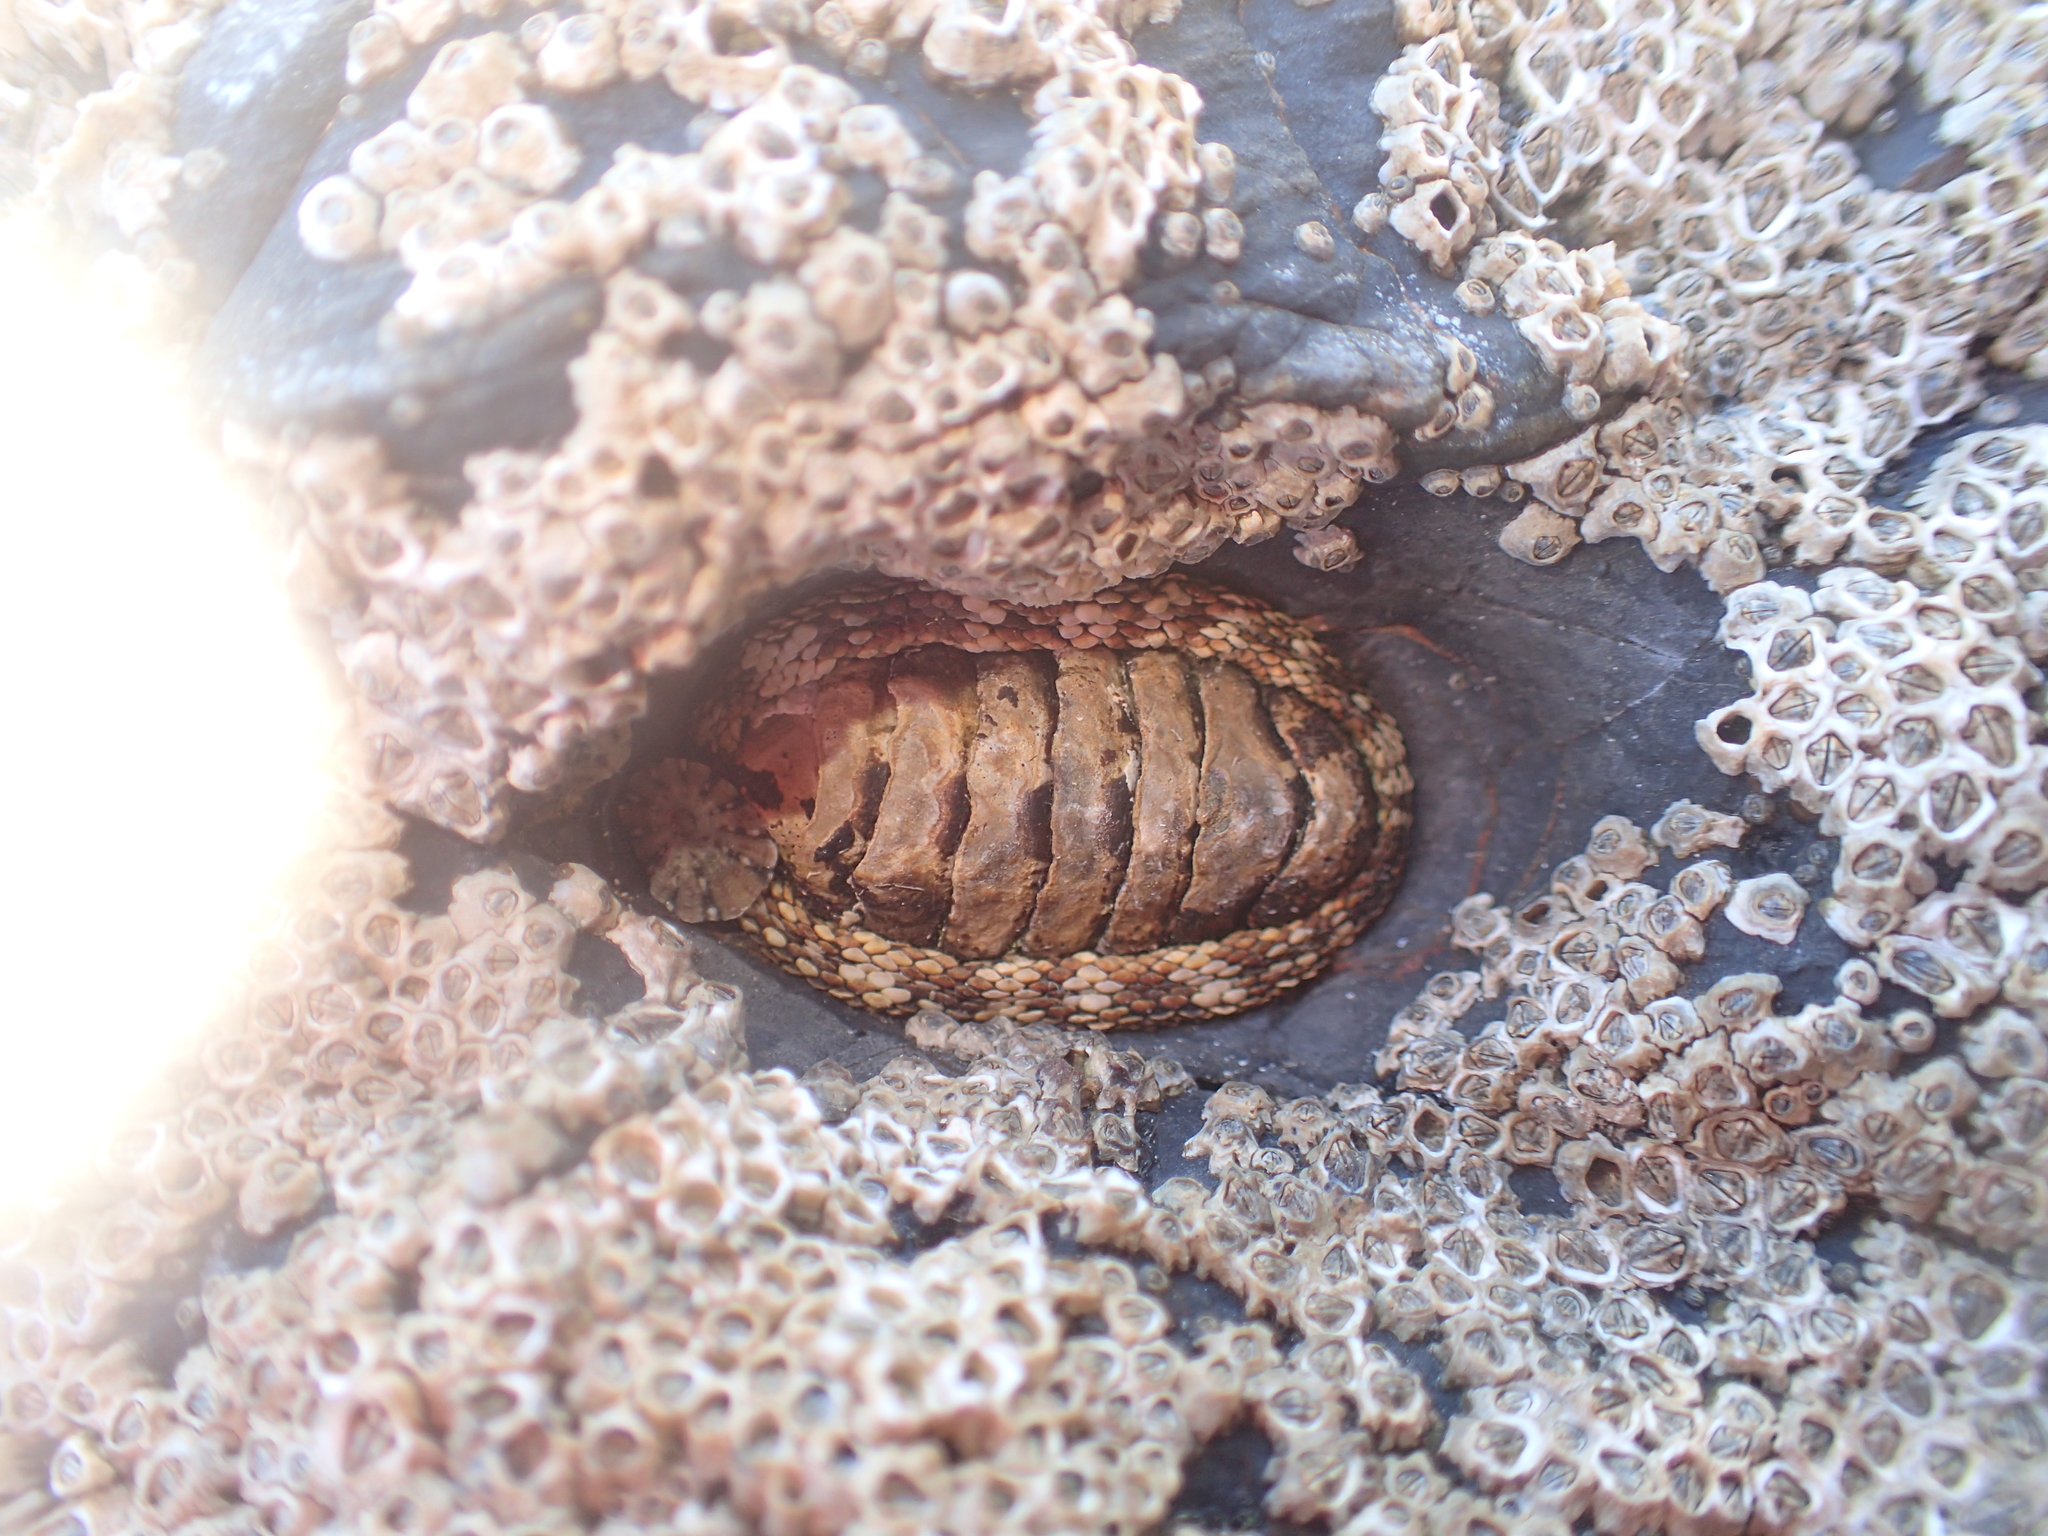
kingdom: Animalia
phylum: Mollusca
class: Polyplacophora
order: Chitonida
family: Chitonidae
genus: Sypharochiton
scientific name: Sypharochiton pelliserpentis
